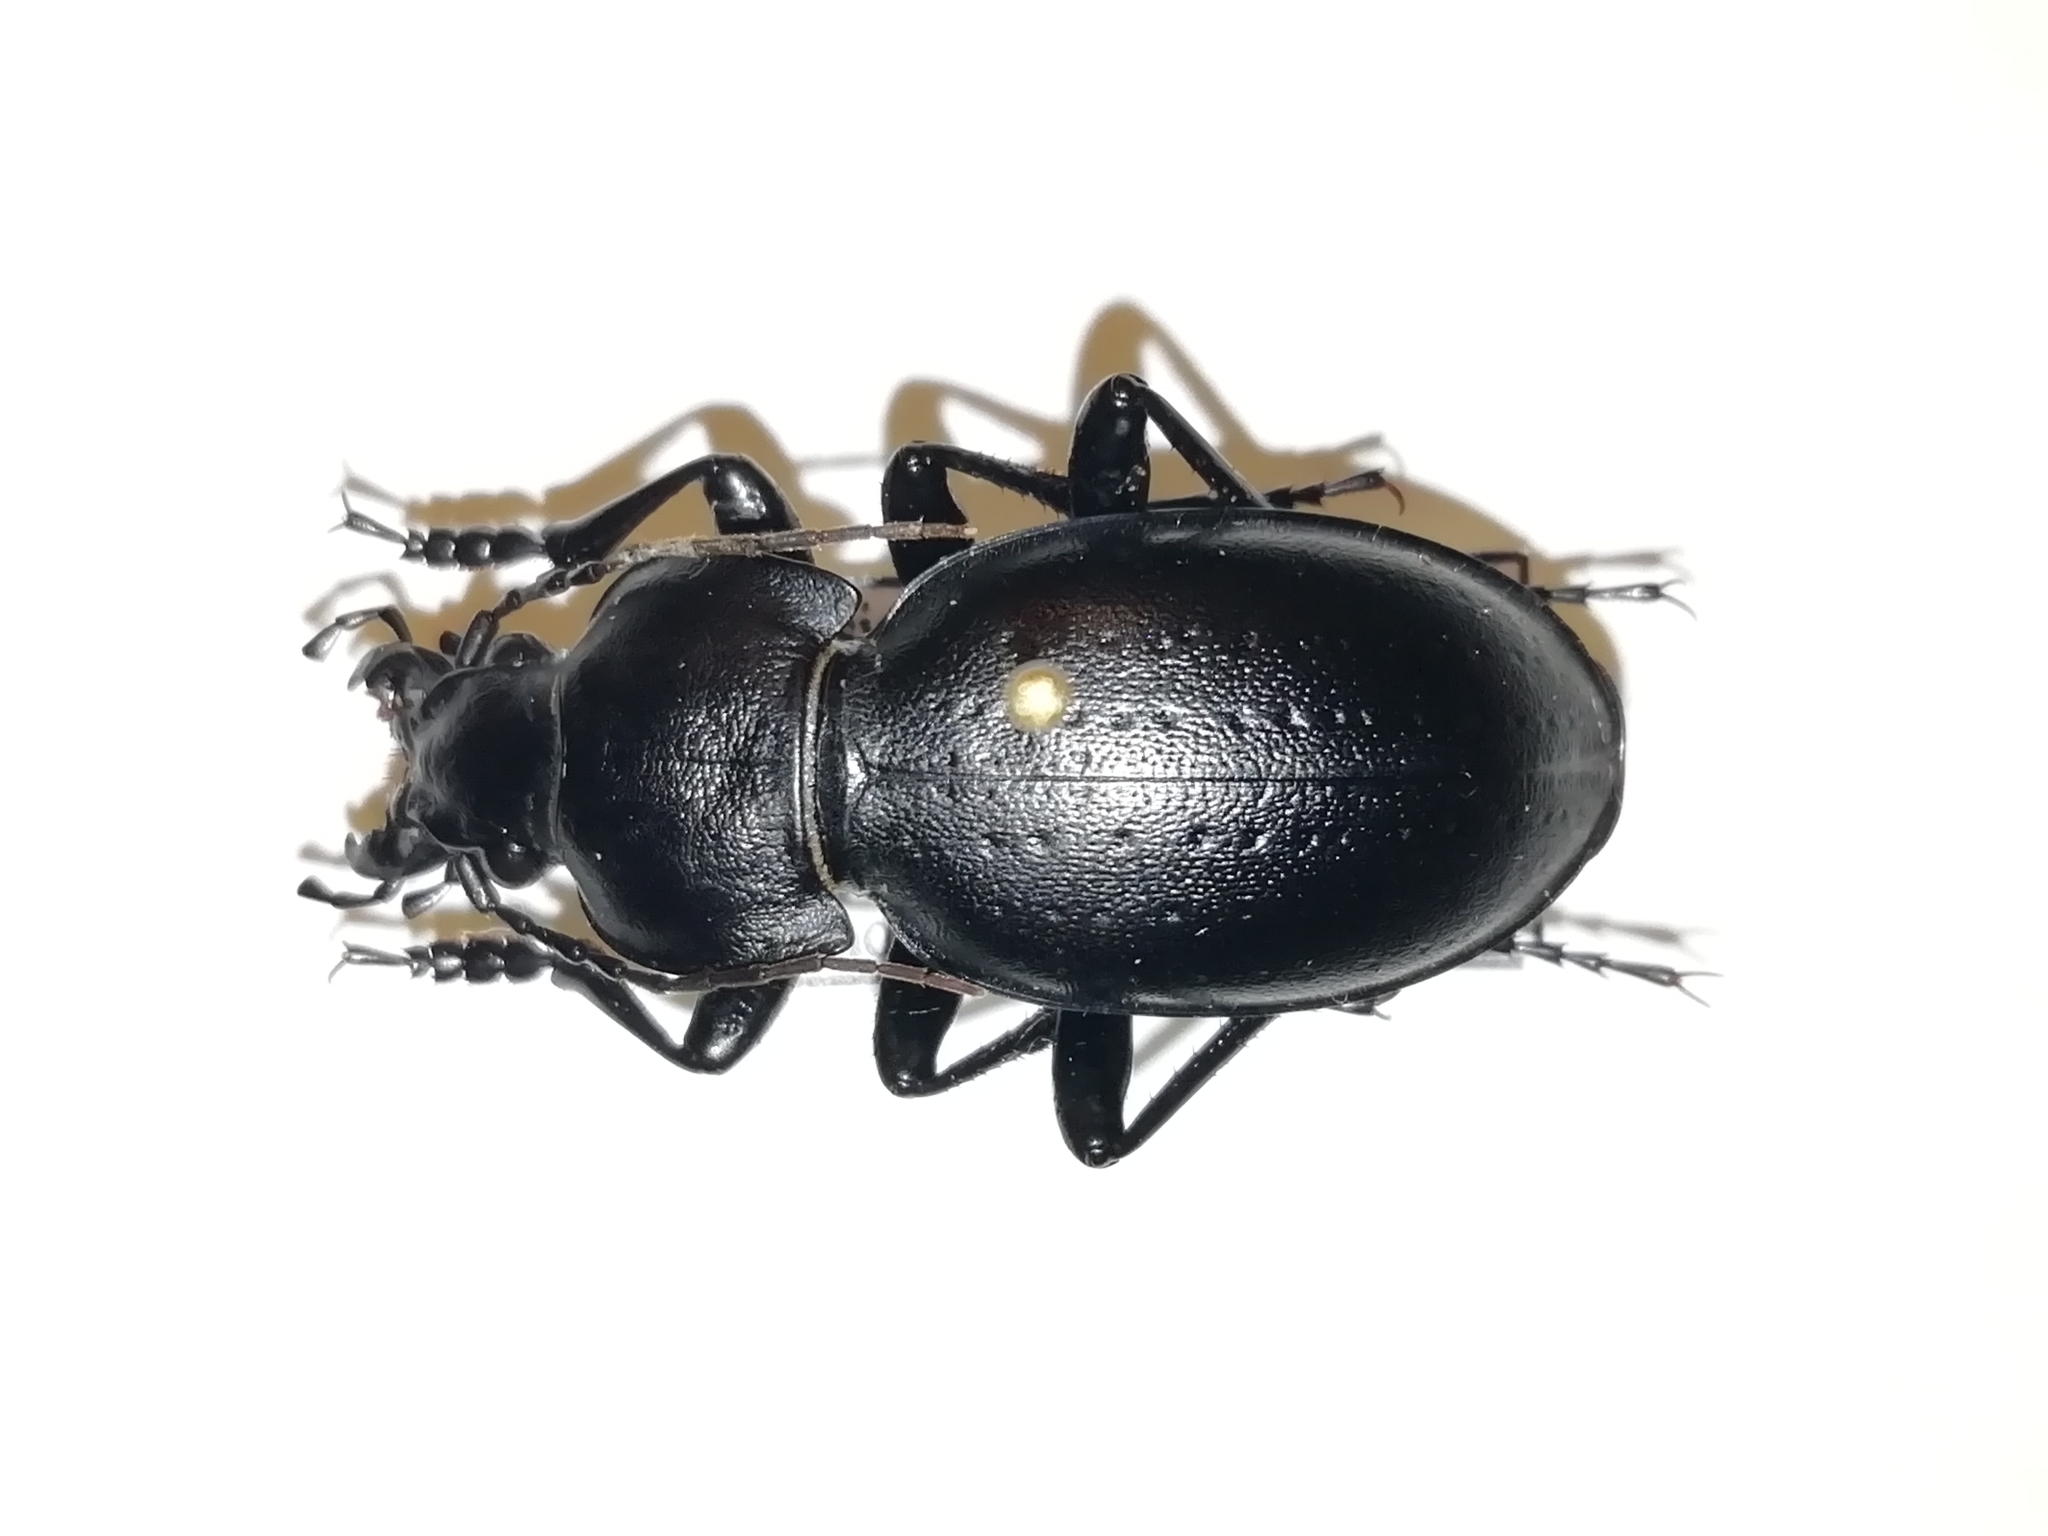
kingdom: Animalia
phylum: Arthropoda
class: Insecta
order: Coleoptera
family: Carabidae
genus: Carabus
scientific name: Carabus hungaricus
